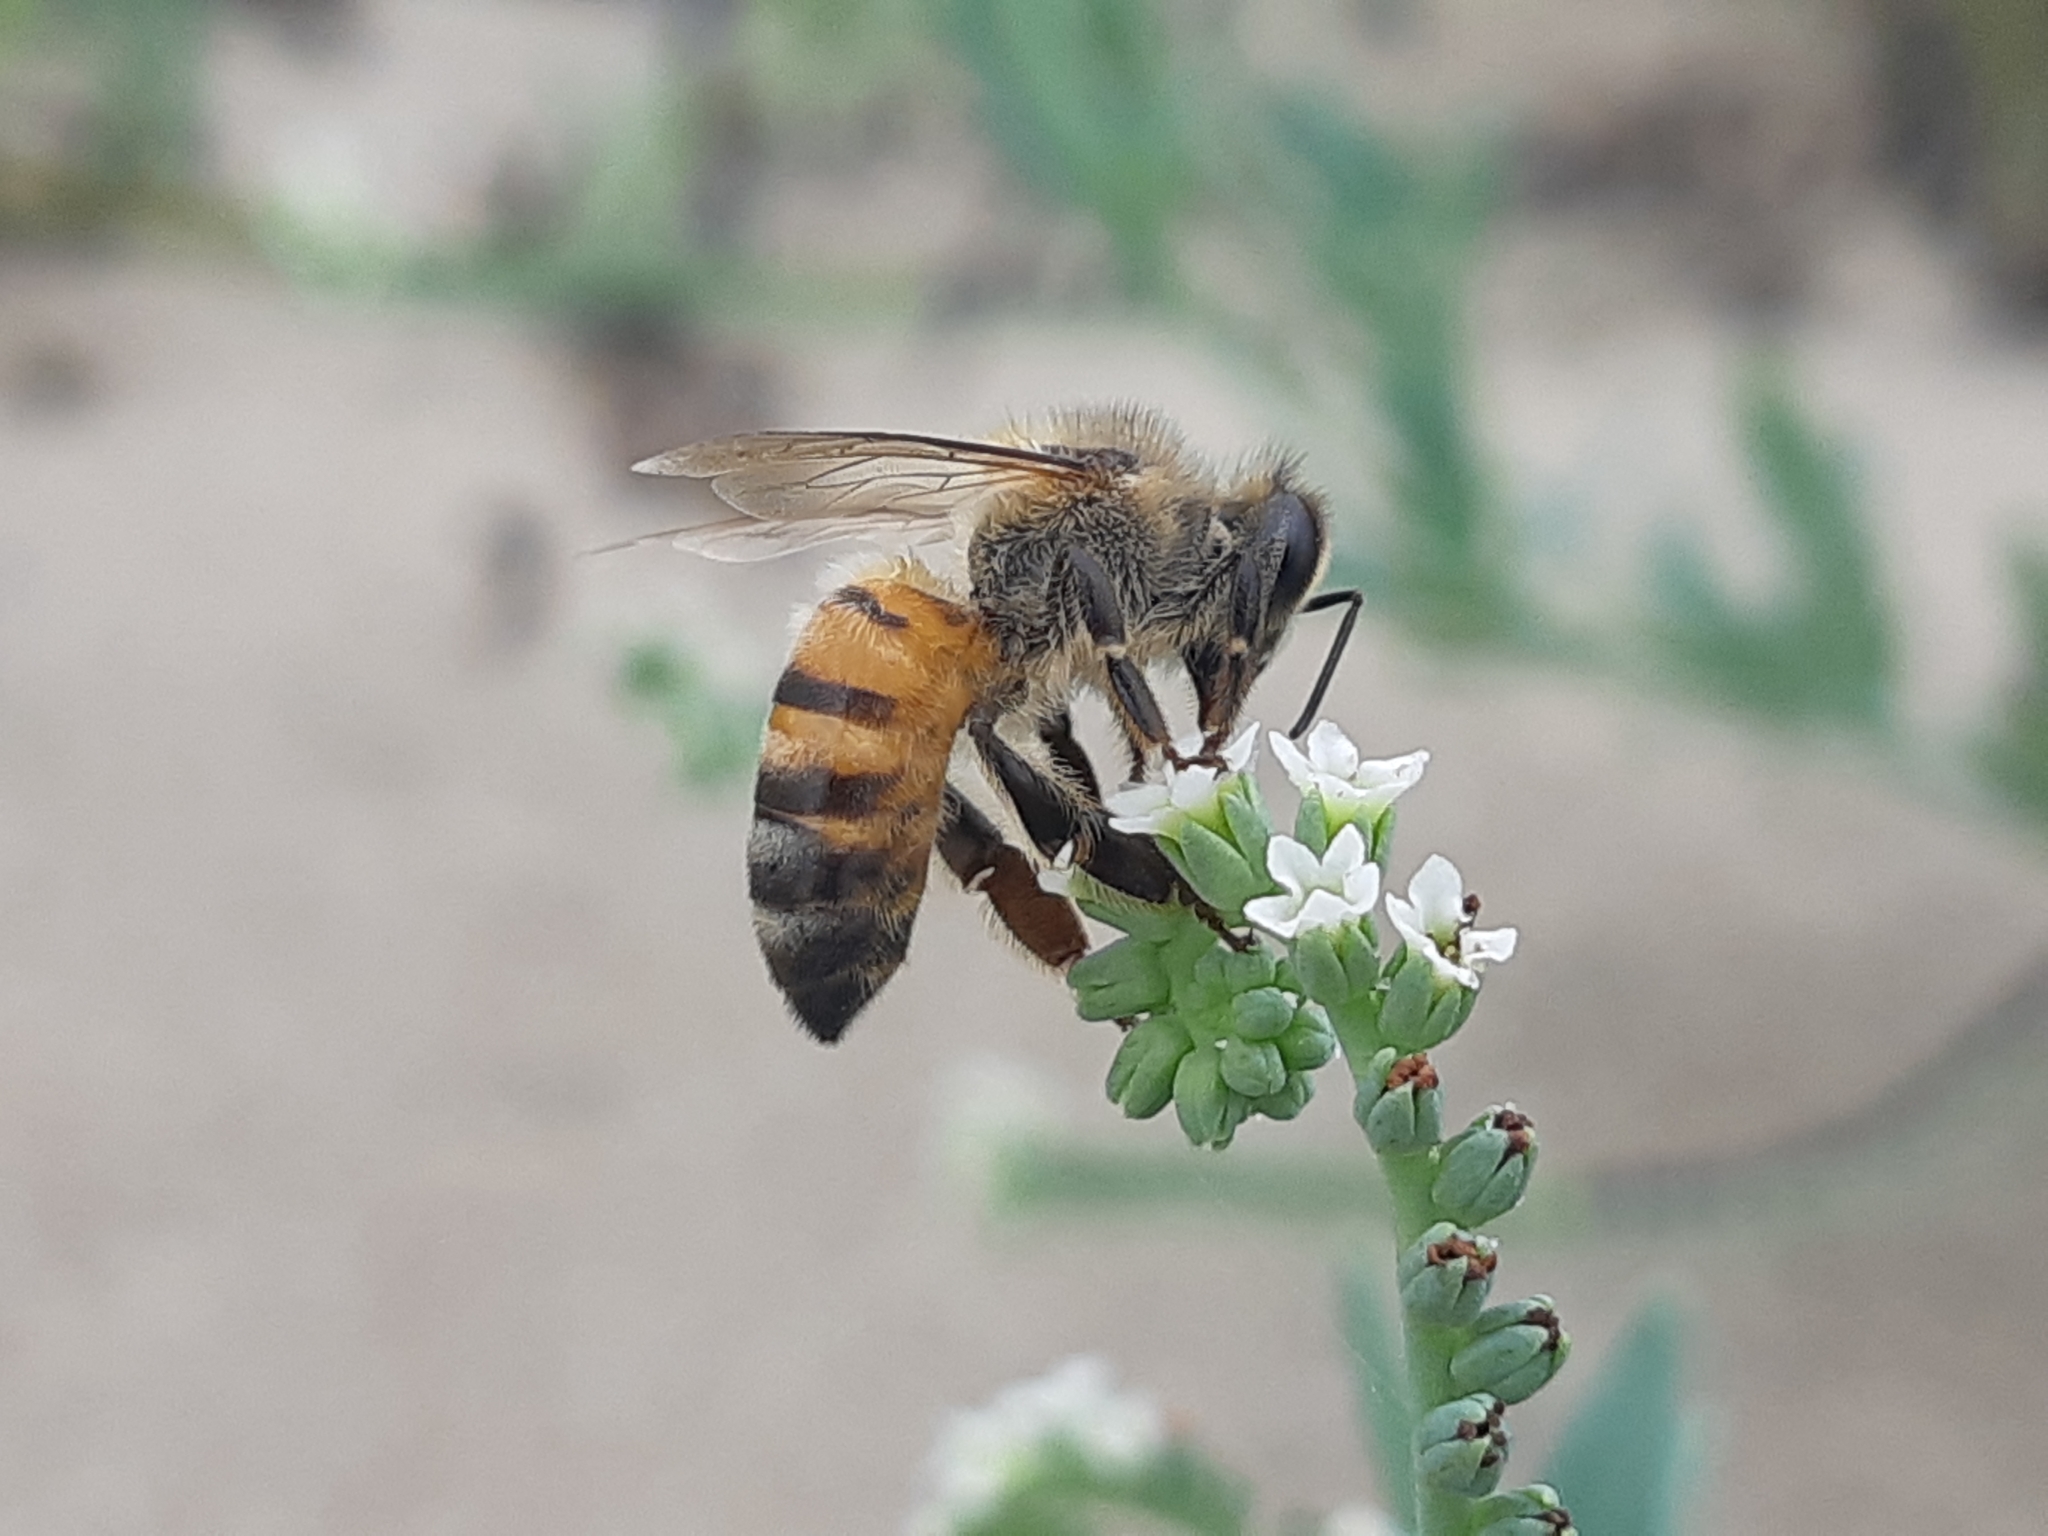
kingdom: Animalia
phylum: Arthropoda
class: Insecta
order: Hymenoptera
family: Apidae
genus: Apis
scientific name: Apis mellifera
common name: Honey bee
